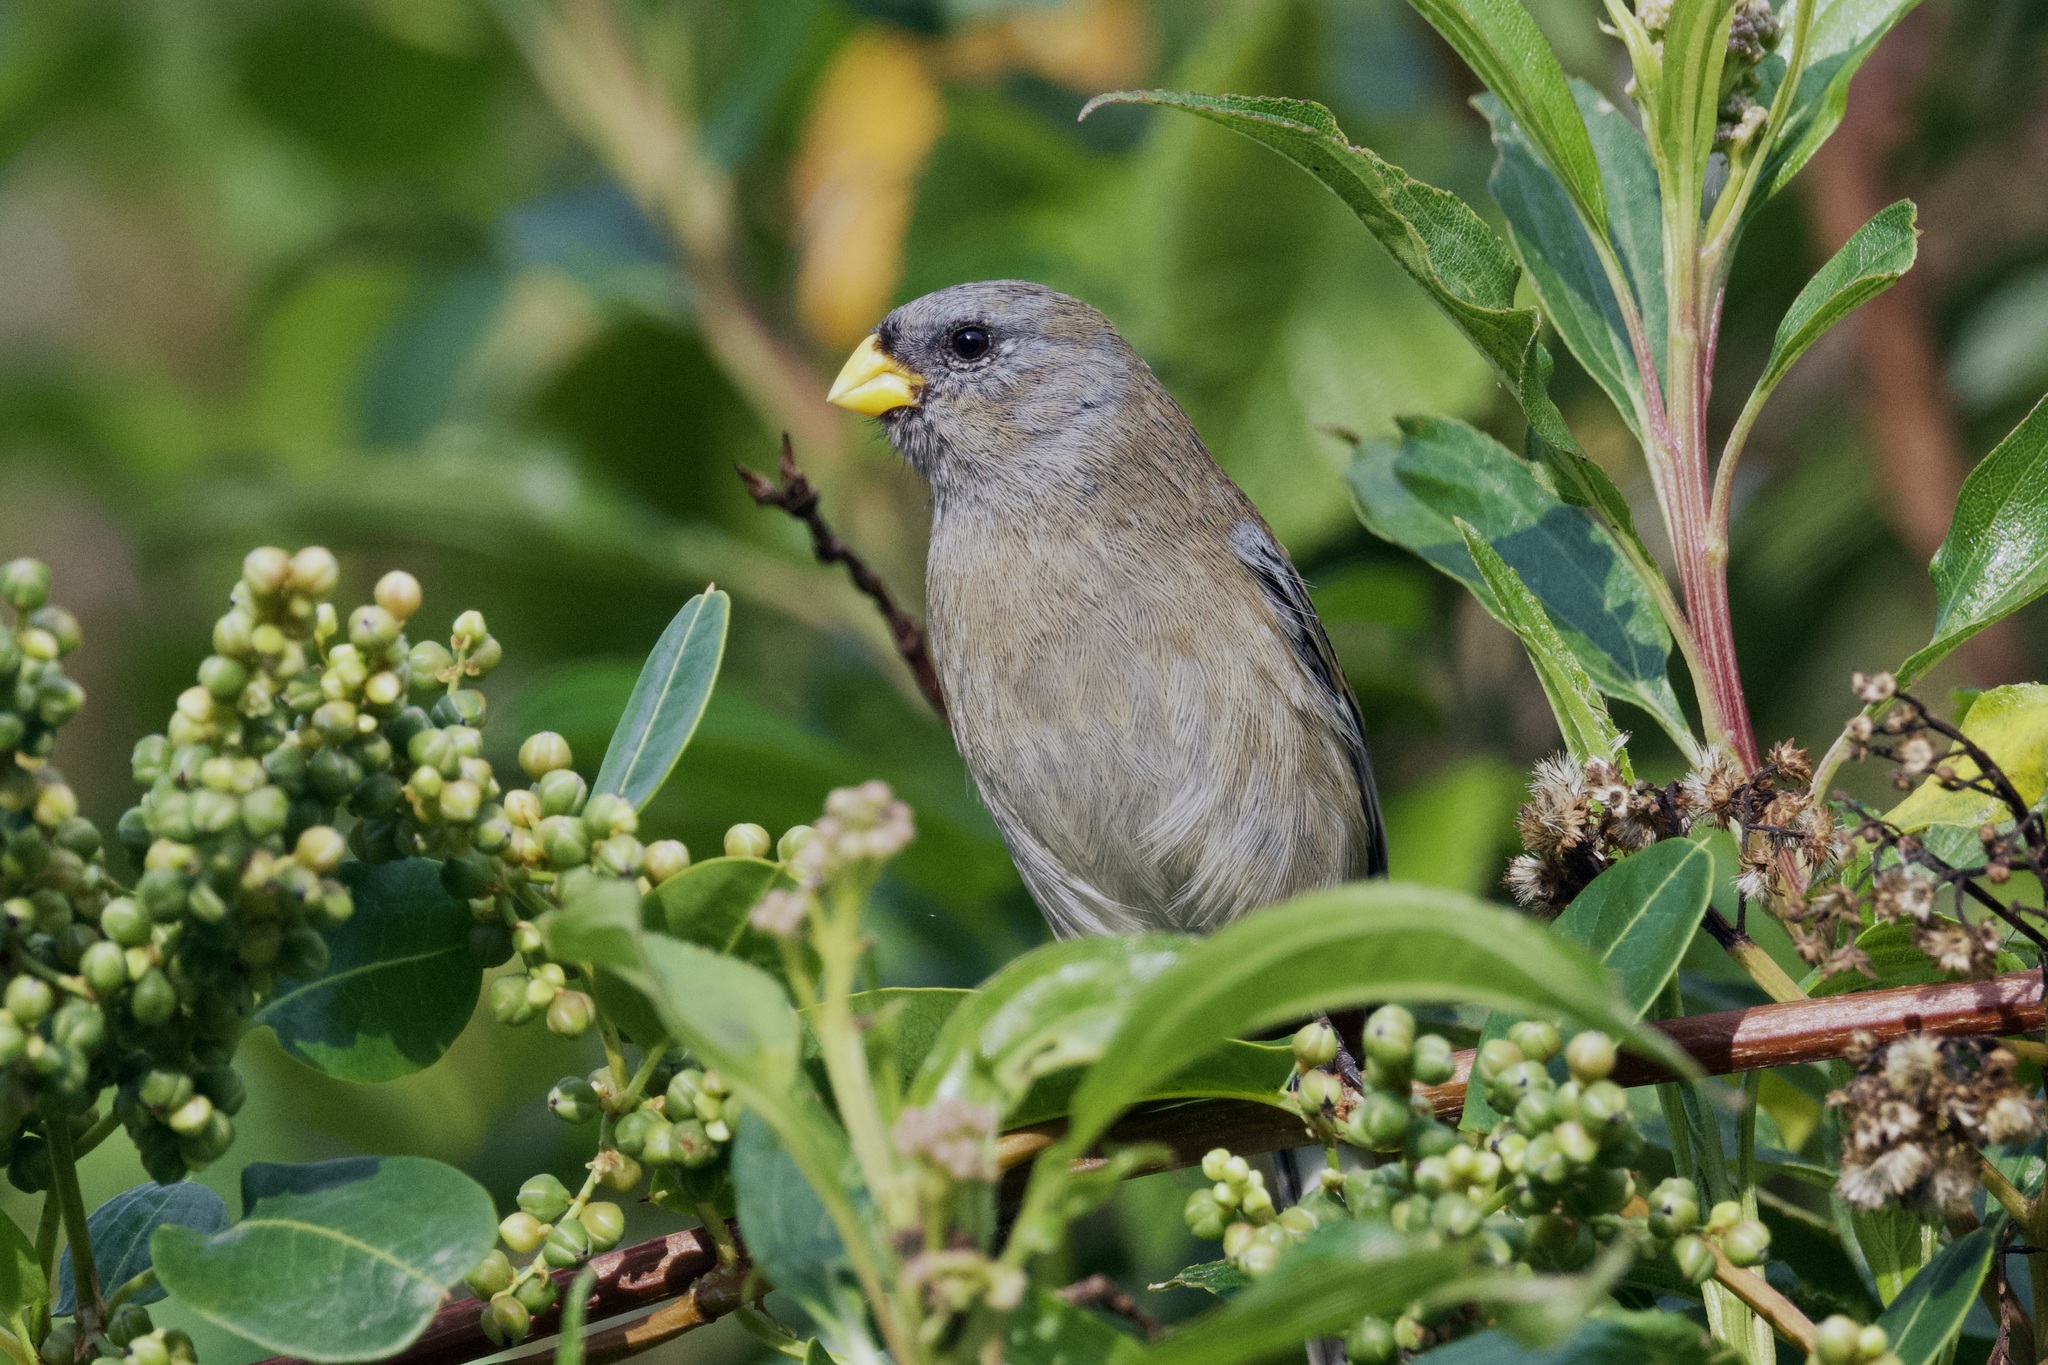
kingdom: Animalia
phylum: Chordata
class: Aves
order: Passeriformes
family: Thraupidae
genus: Catamenia
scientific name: Catamenia analis
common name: Band-tailed seedeater
